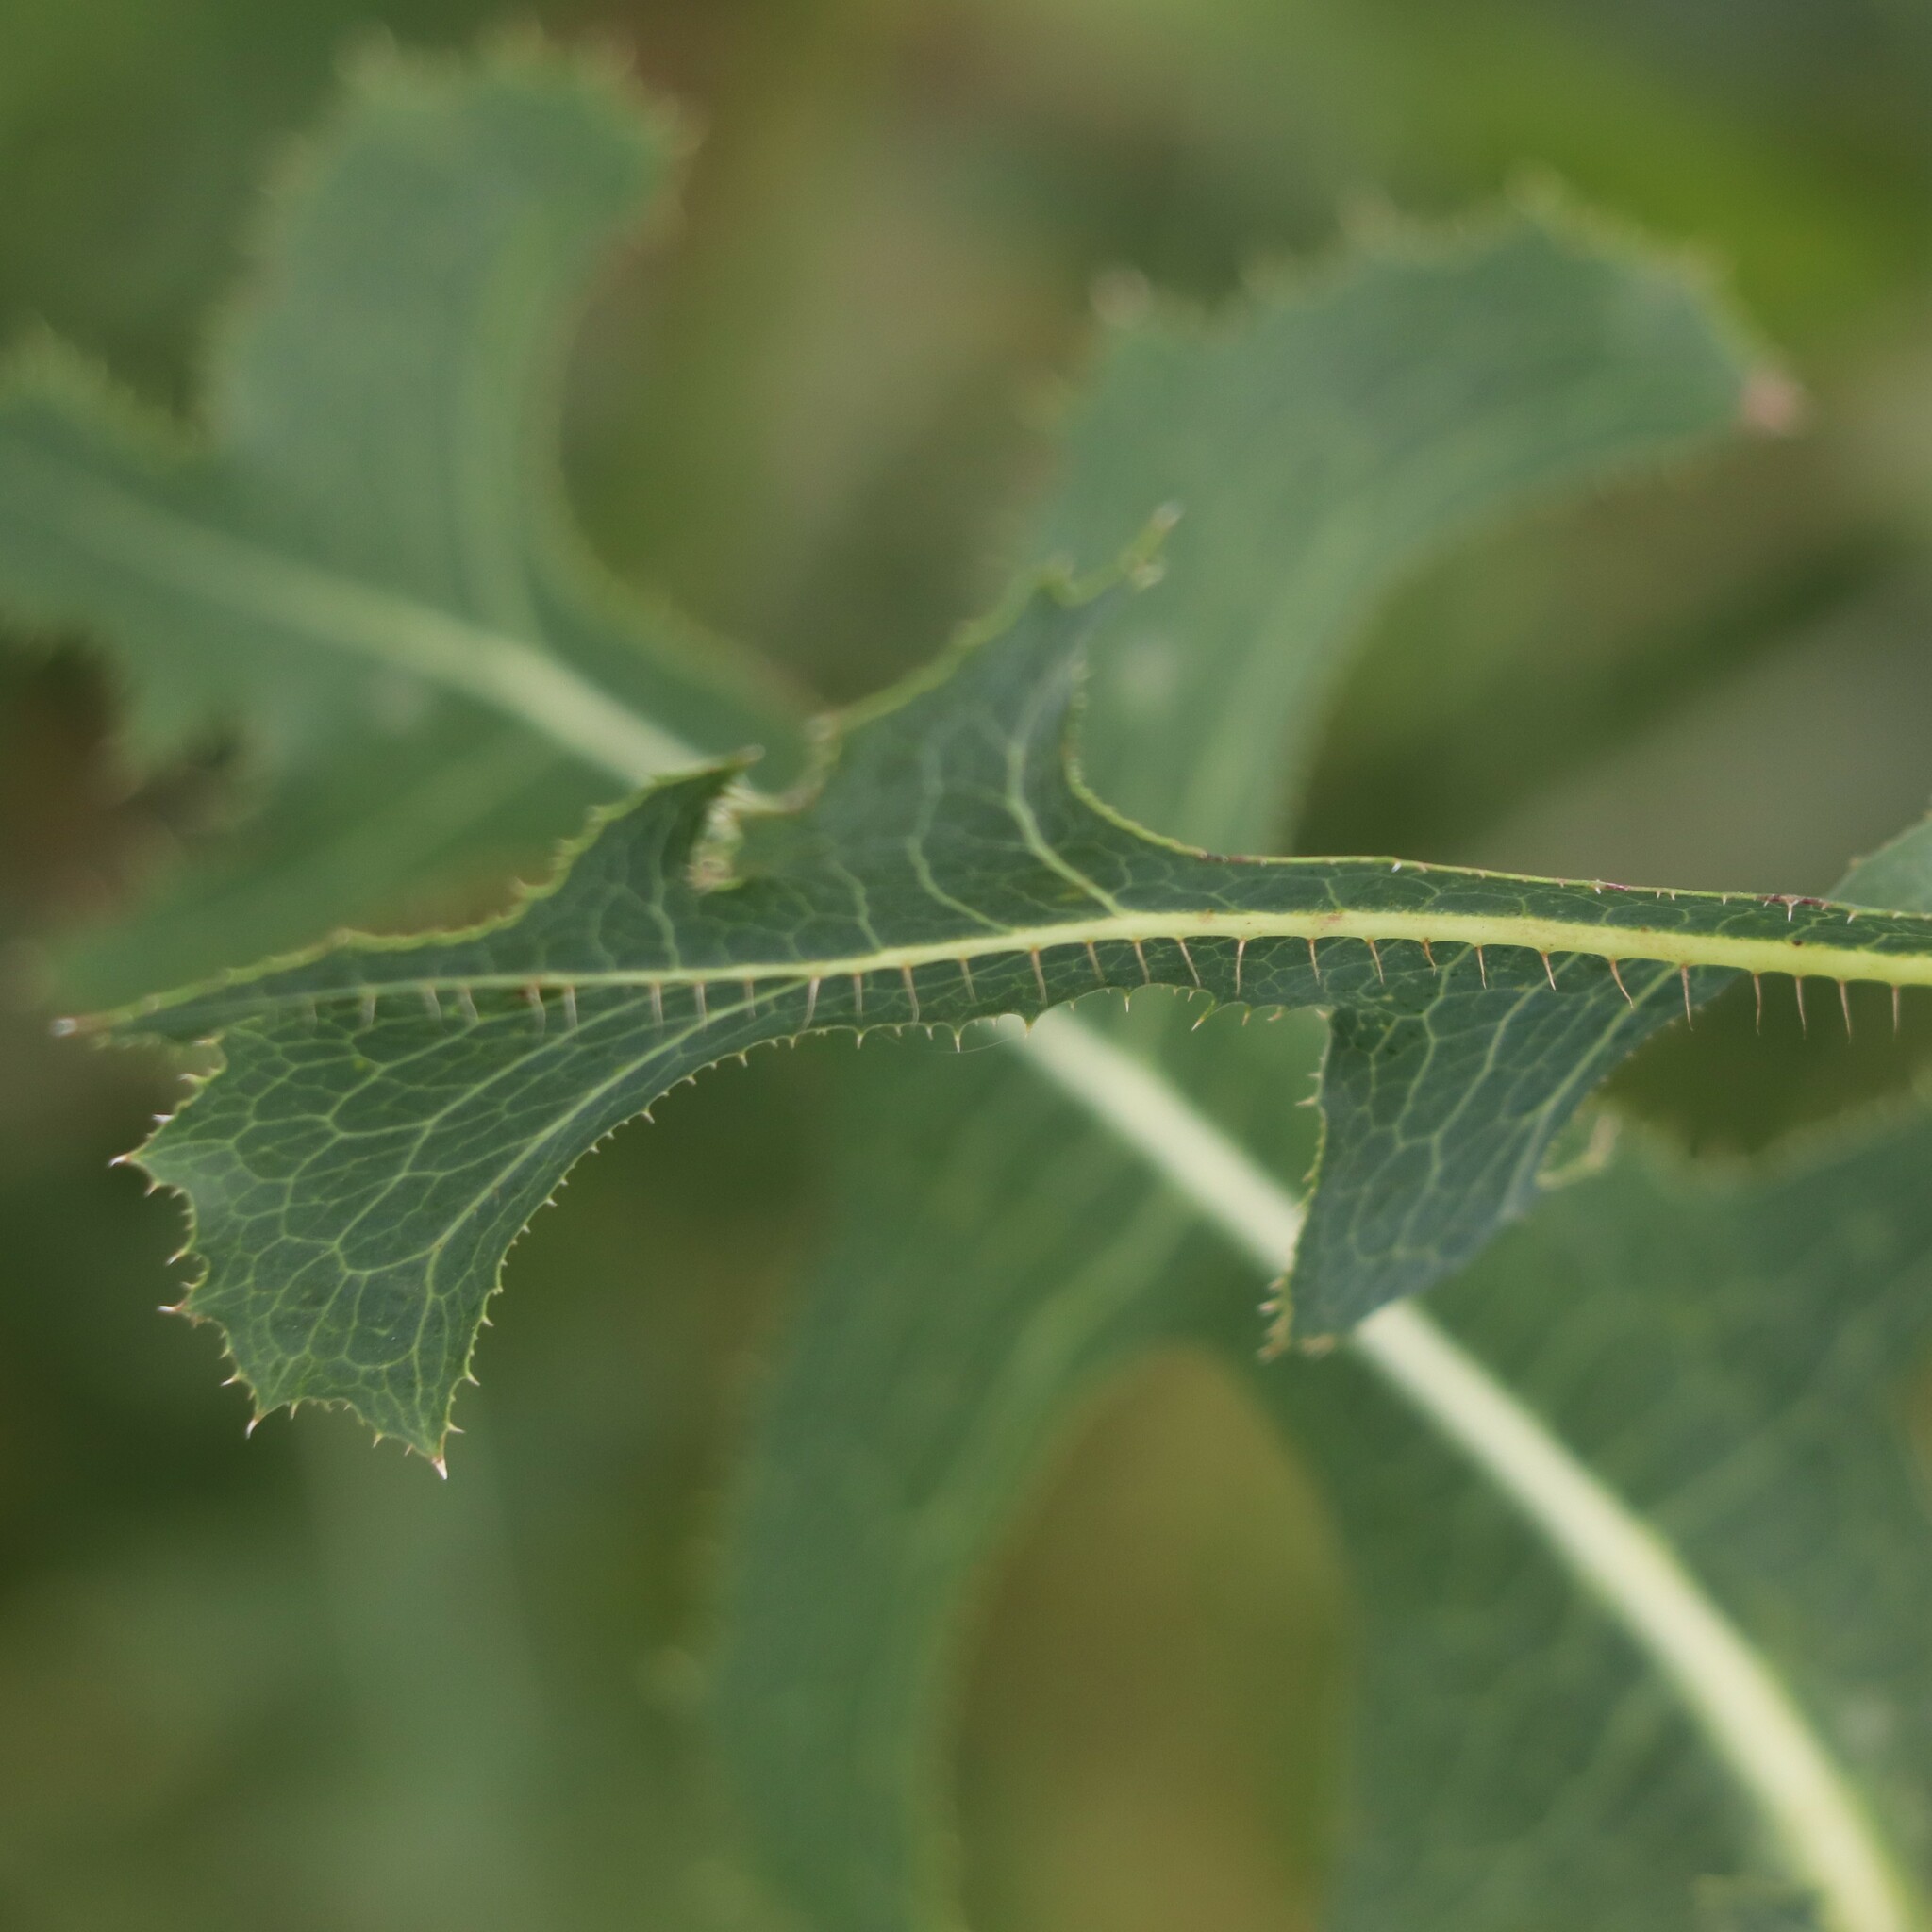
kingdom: Plantae
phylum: Tracheophyta
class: Magnoliopsida
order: Asterales
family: Asteraceae
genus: Lactuca
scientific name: Lactuca serriola
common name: Prickly lettuce
